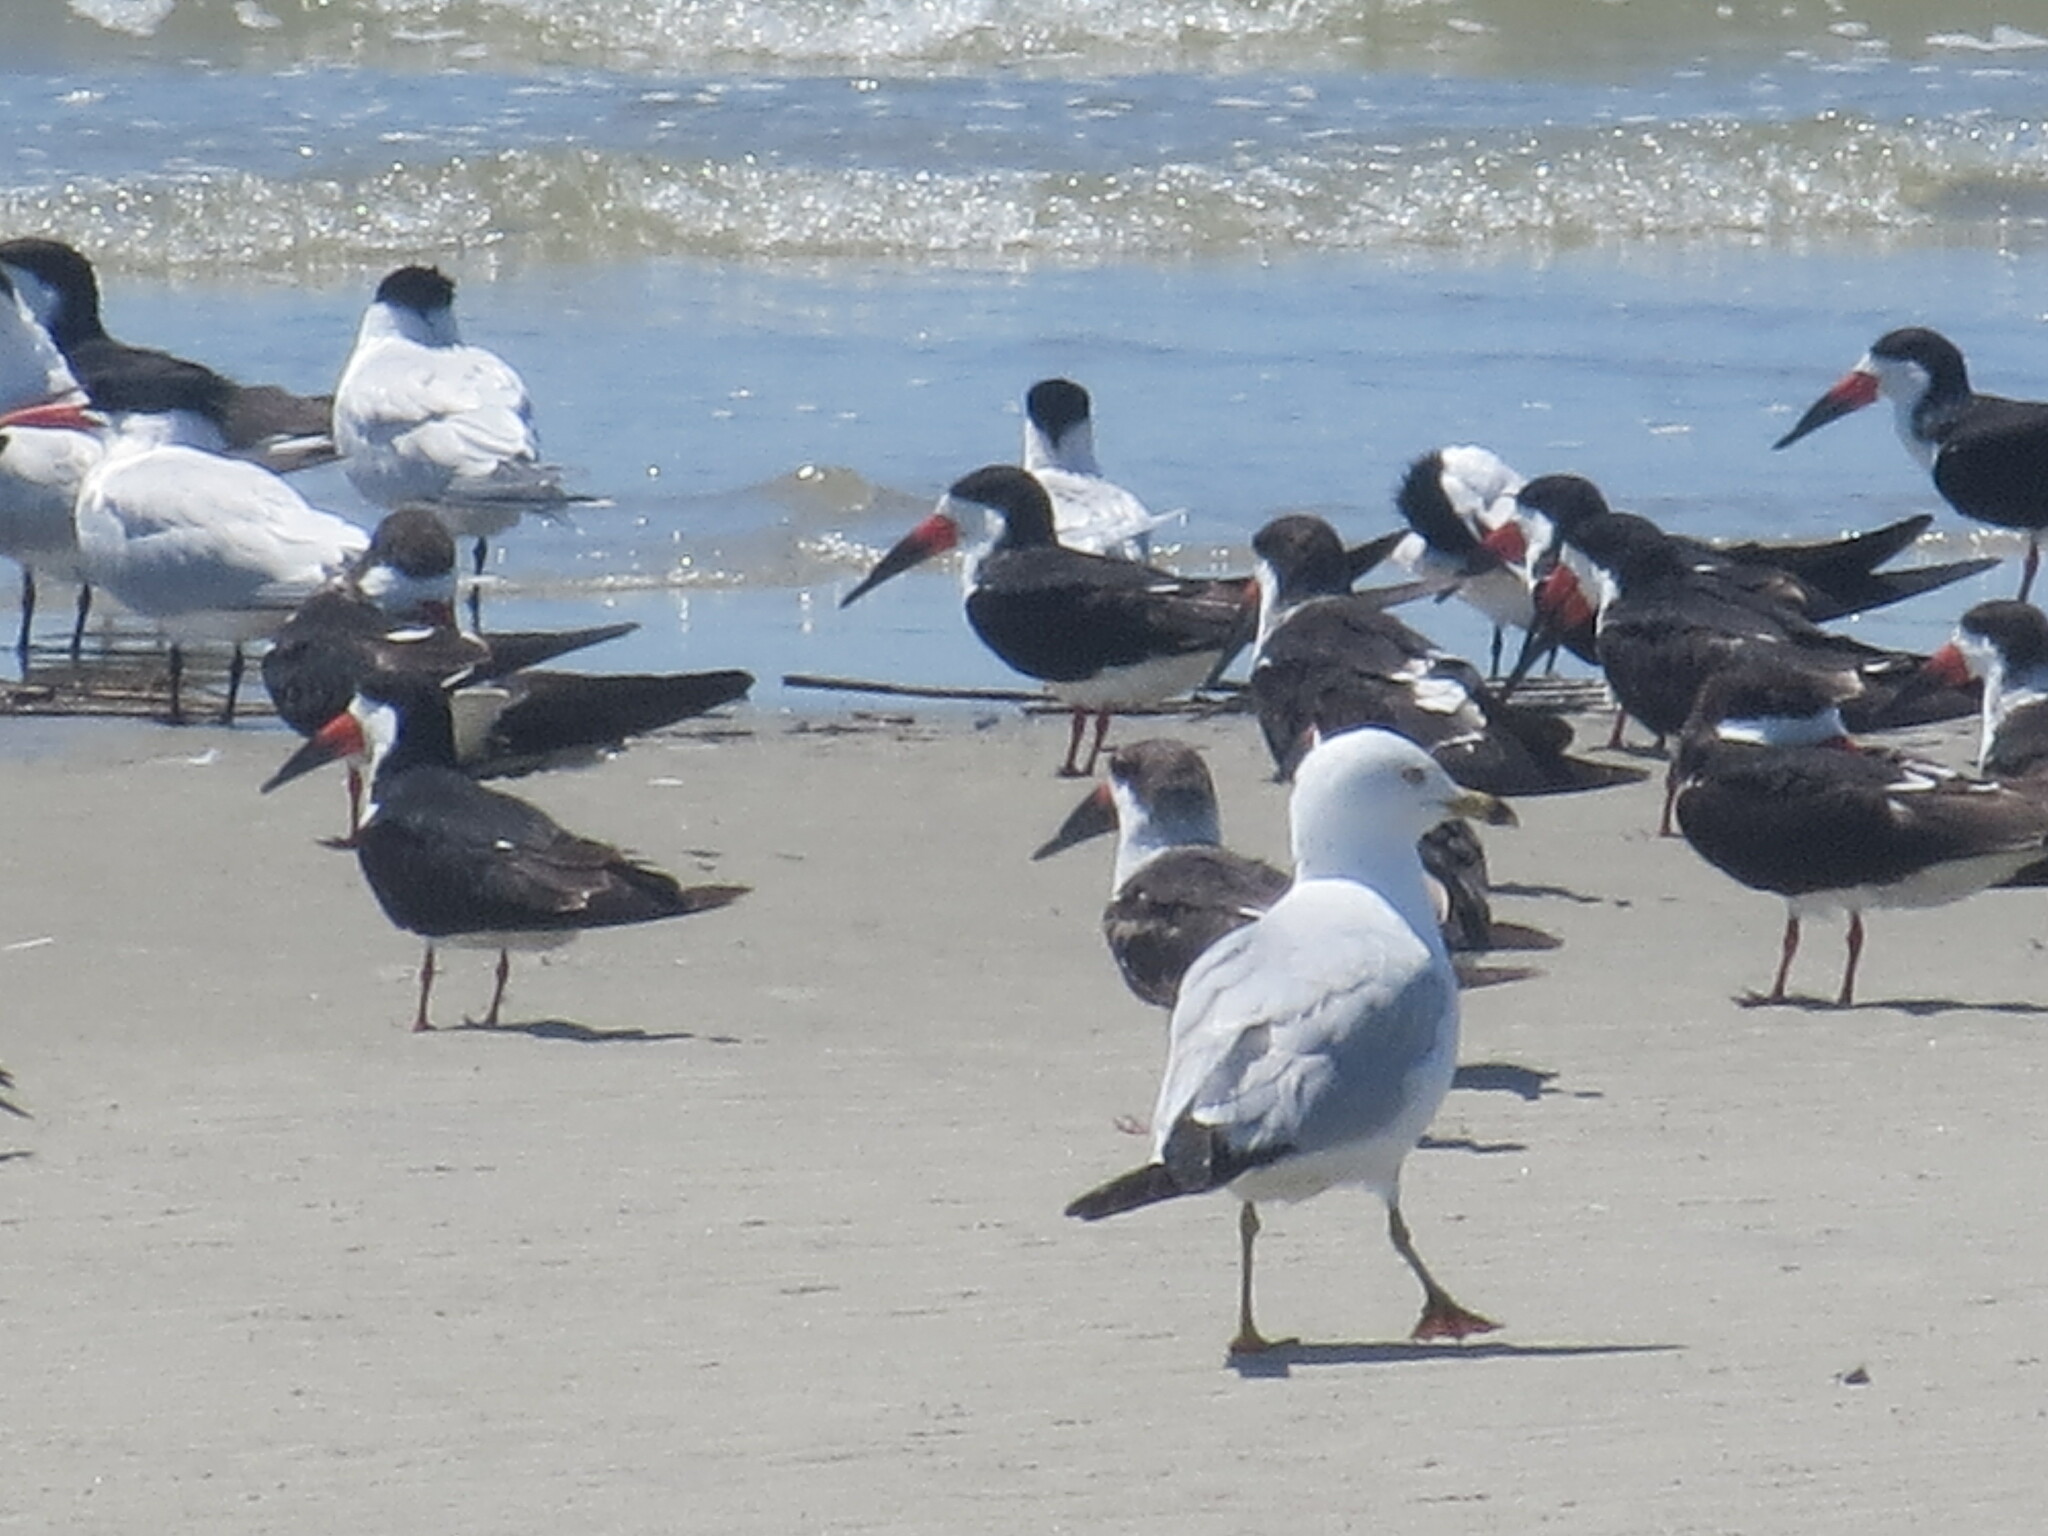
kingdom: Animalia
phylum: Chordata
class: Aves
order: Charadriiformes
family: Laridae
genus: Larus
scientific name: Larus delawarensis
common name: Ring-billed gull
